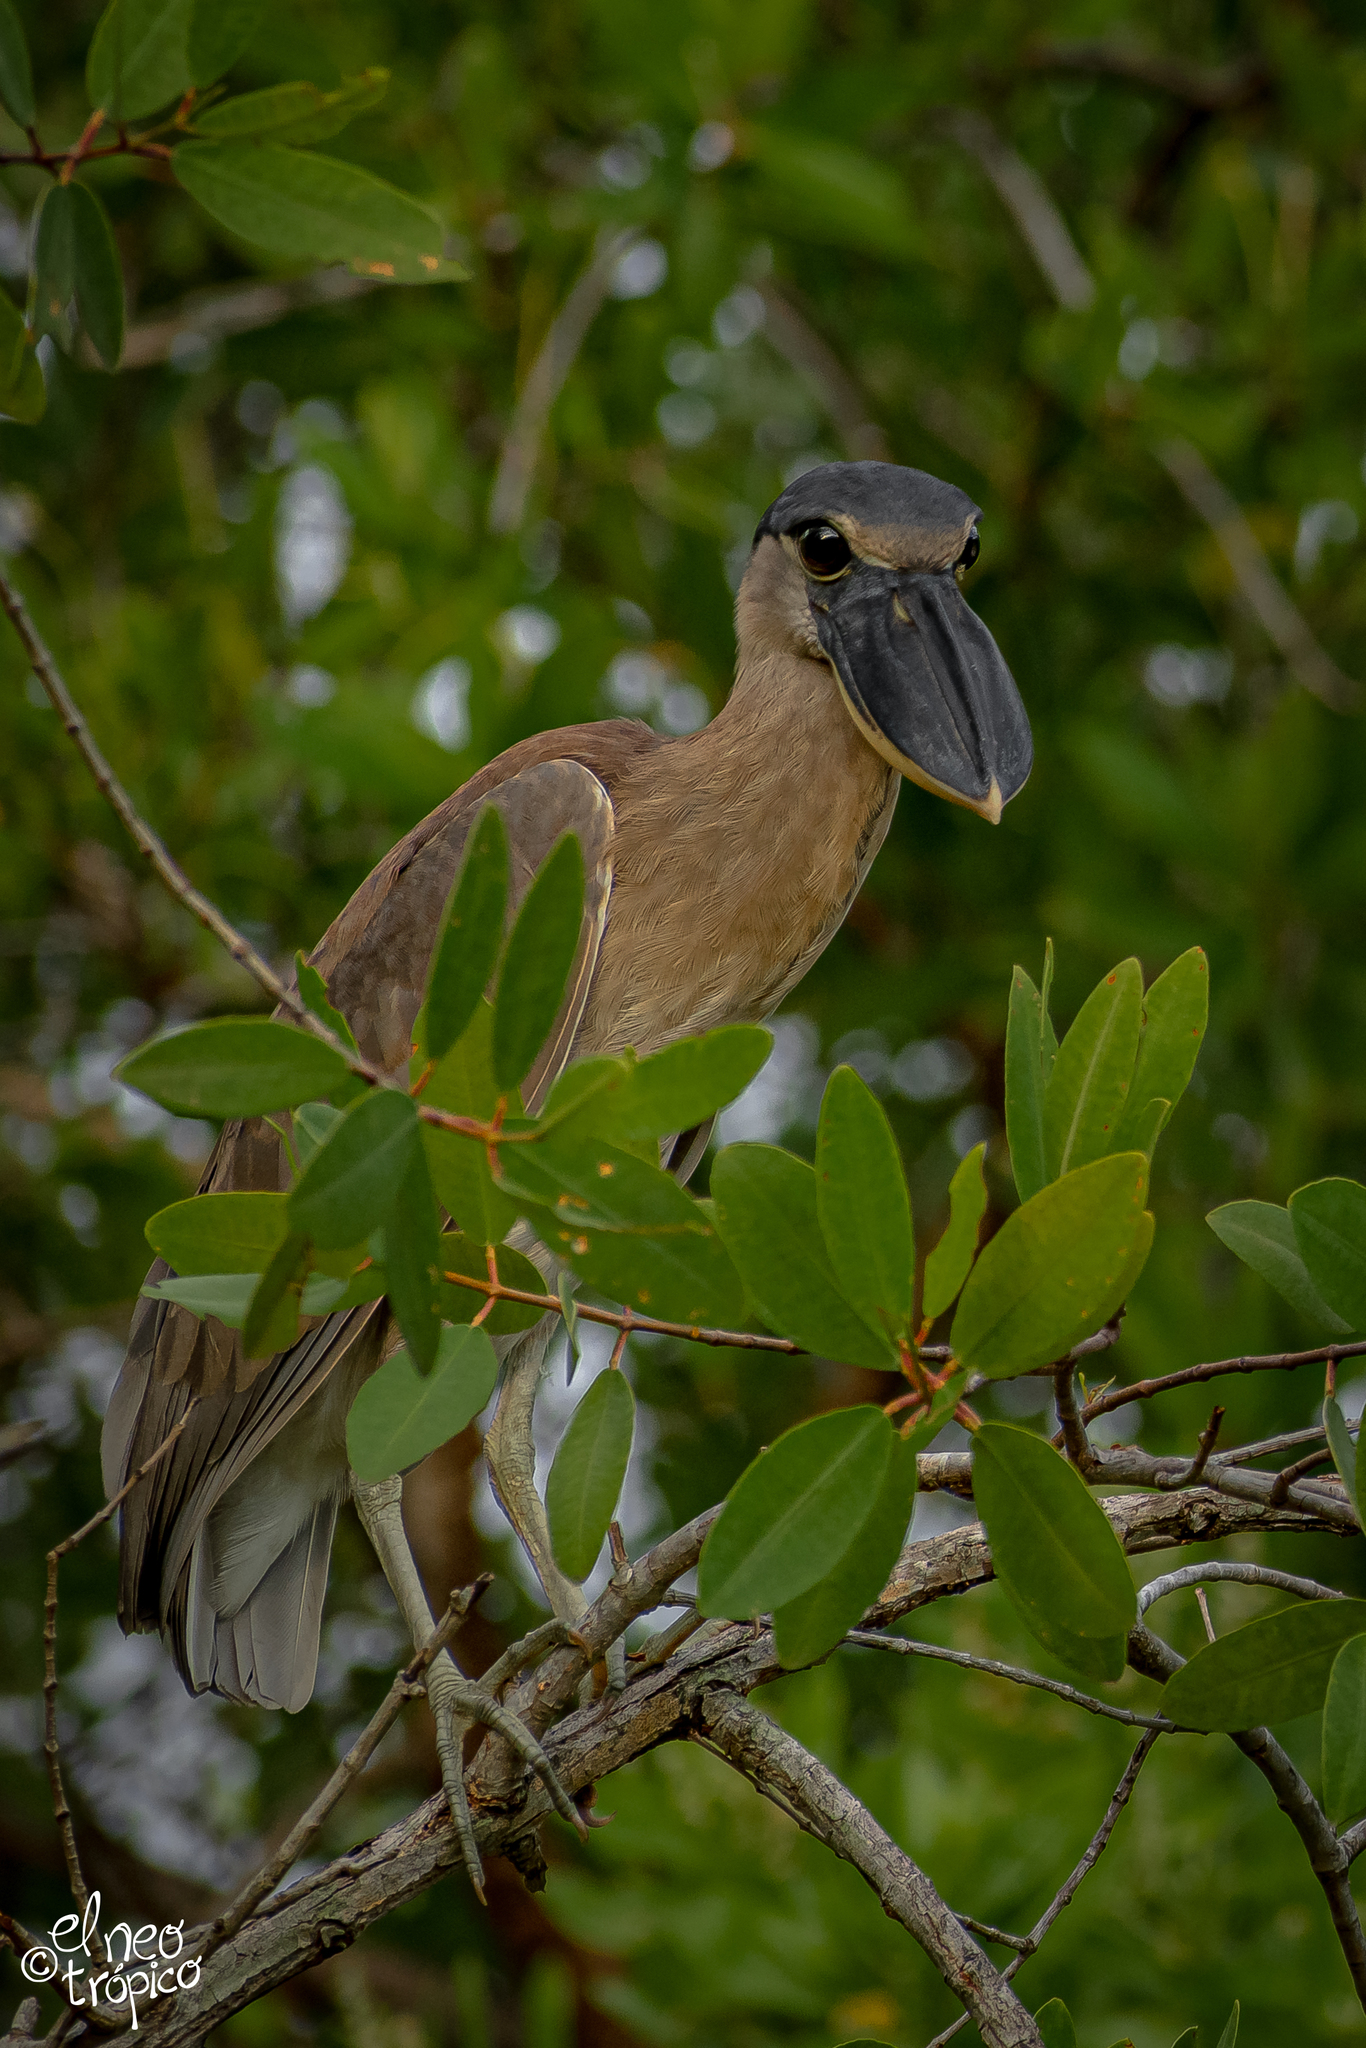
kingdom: Animalia
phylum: Chordata
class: Aves
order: Pelecaniformes
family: Ardeidae
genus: Cochlearius
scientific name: Cochlearius cochlearius
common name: Boat-billed heron
